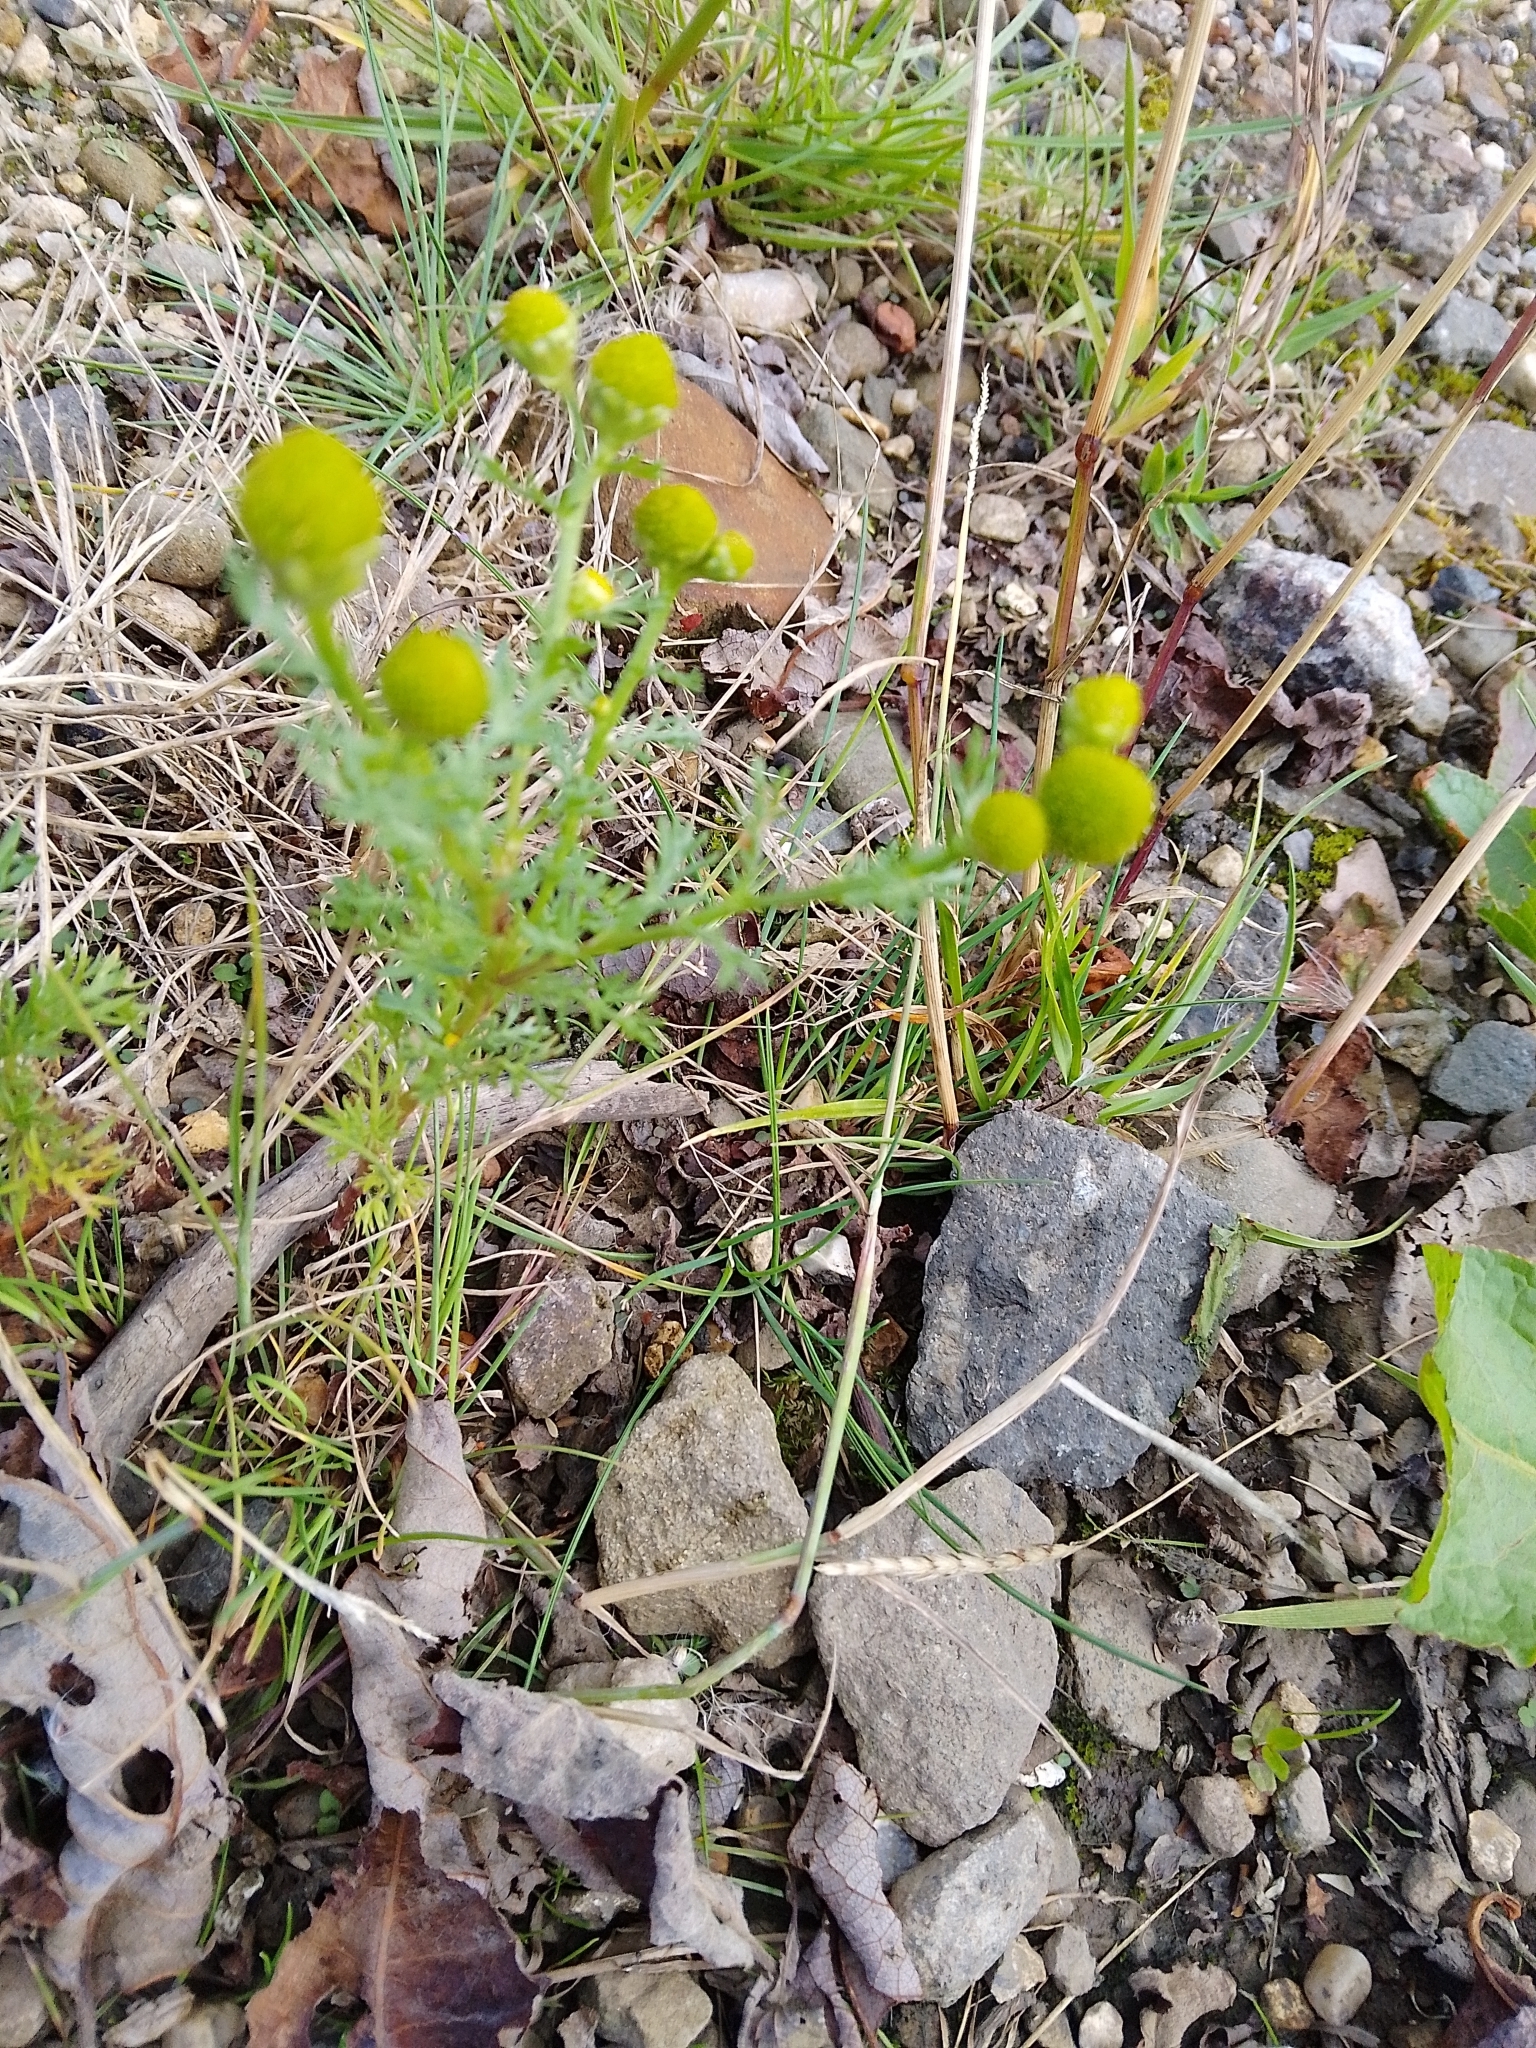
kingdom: Plantae
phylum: Tracheophyta
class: Magnoliopsida
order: Asterales
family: Asteraceae
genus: Matricaria
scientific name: Matricaria discoidea
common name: Disc mayweed
